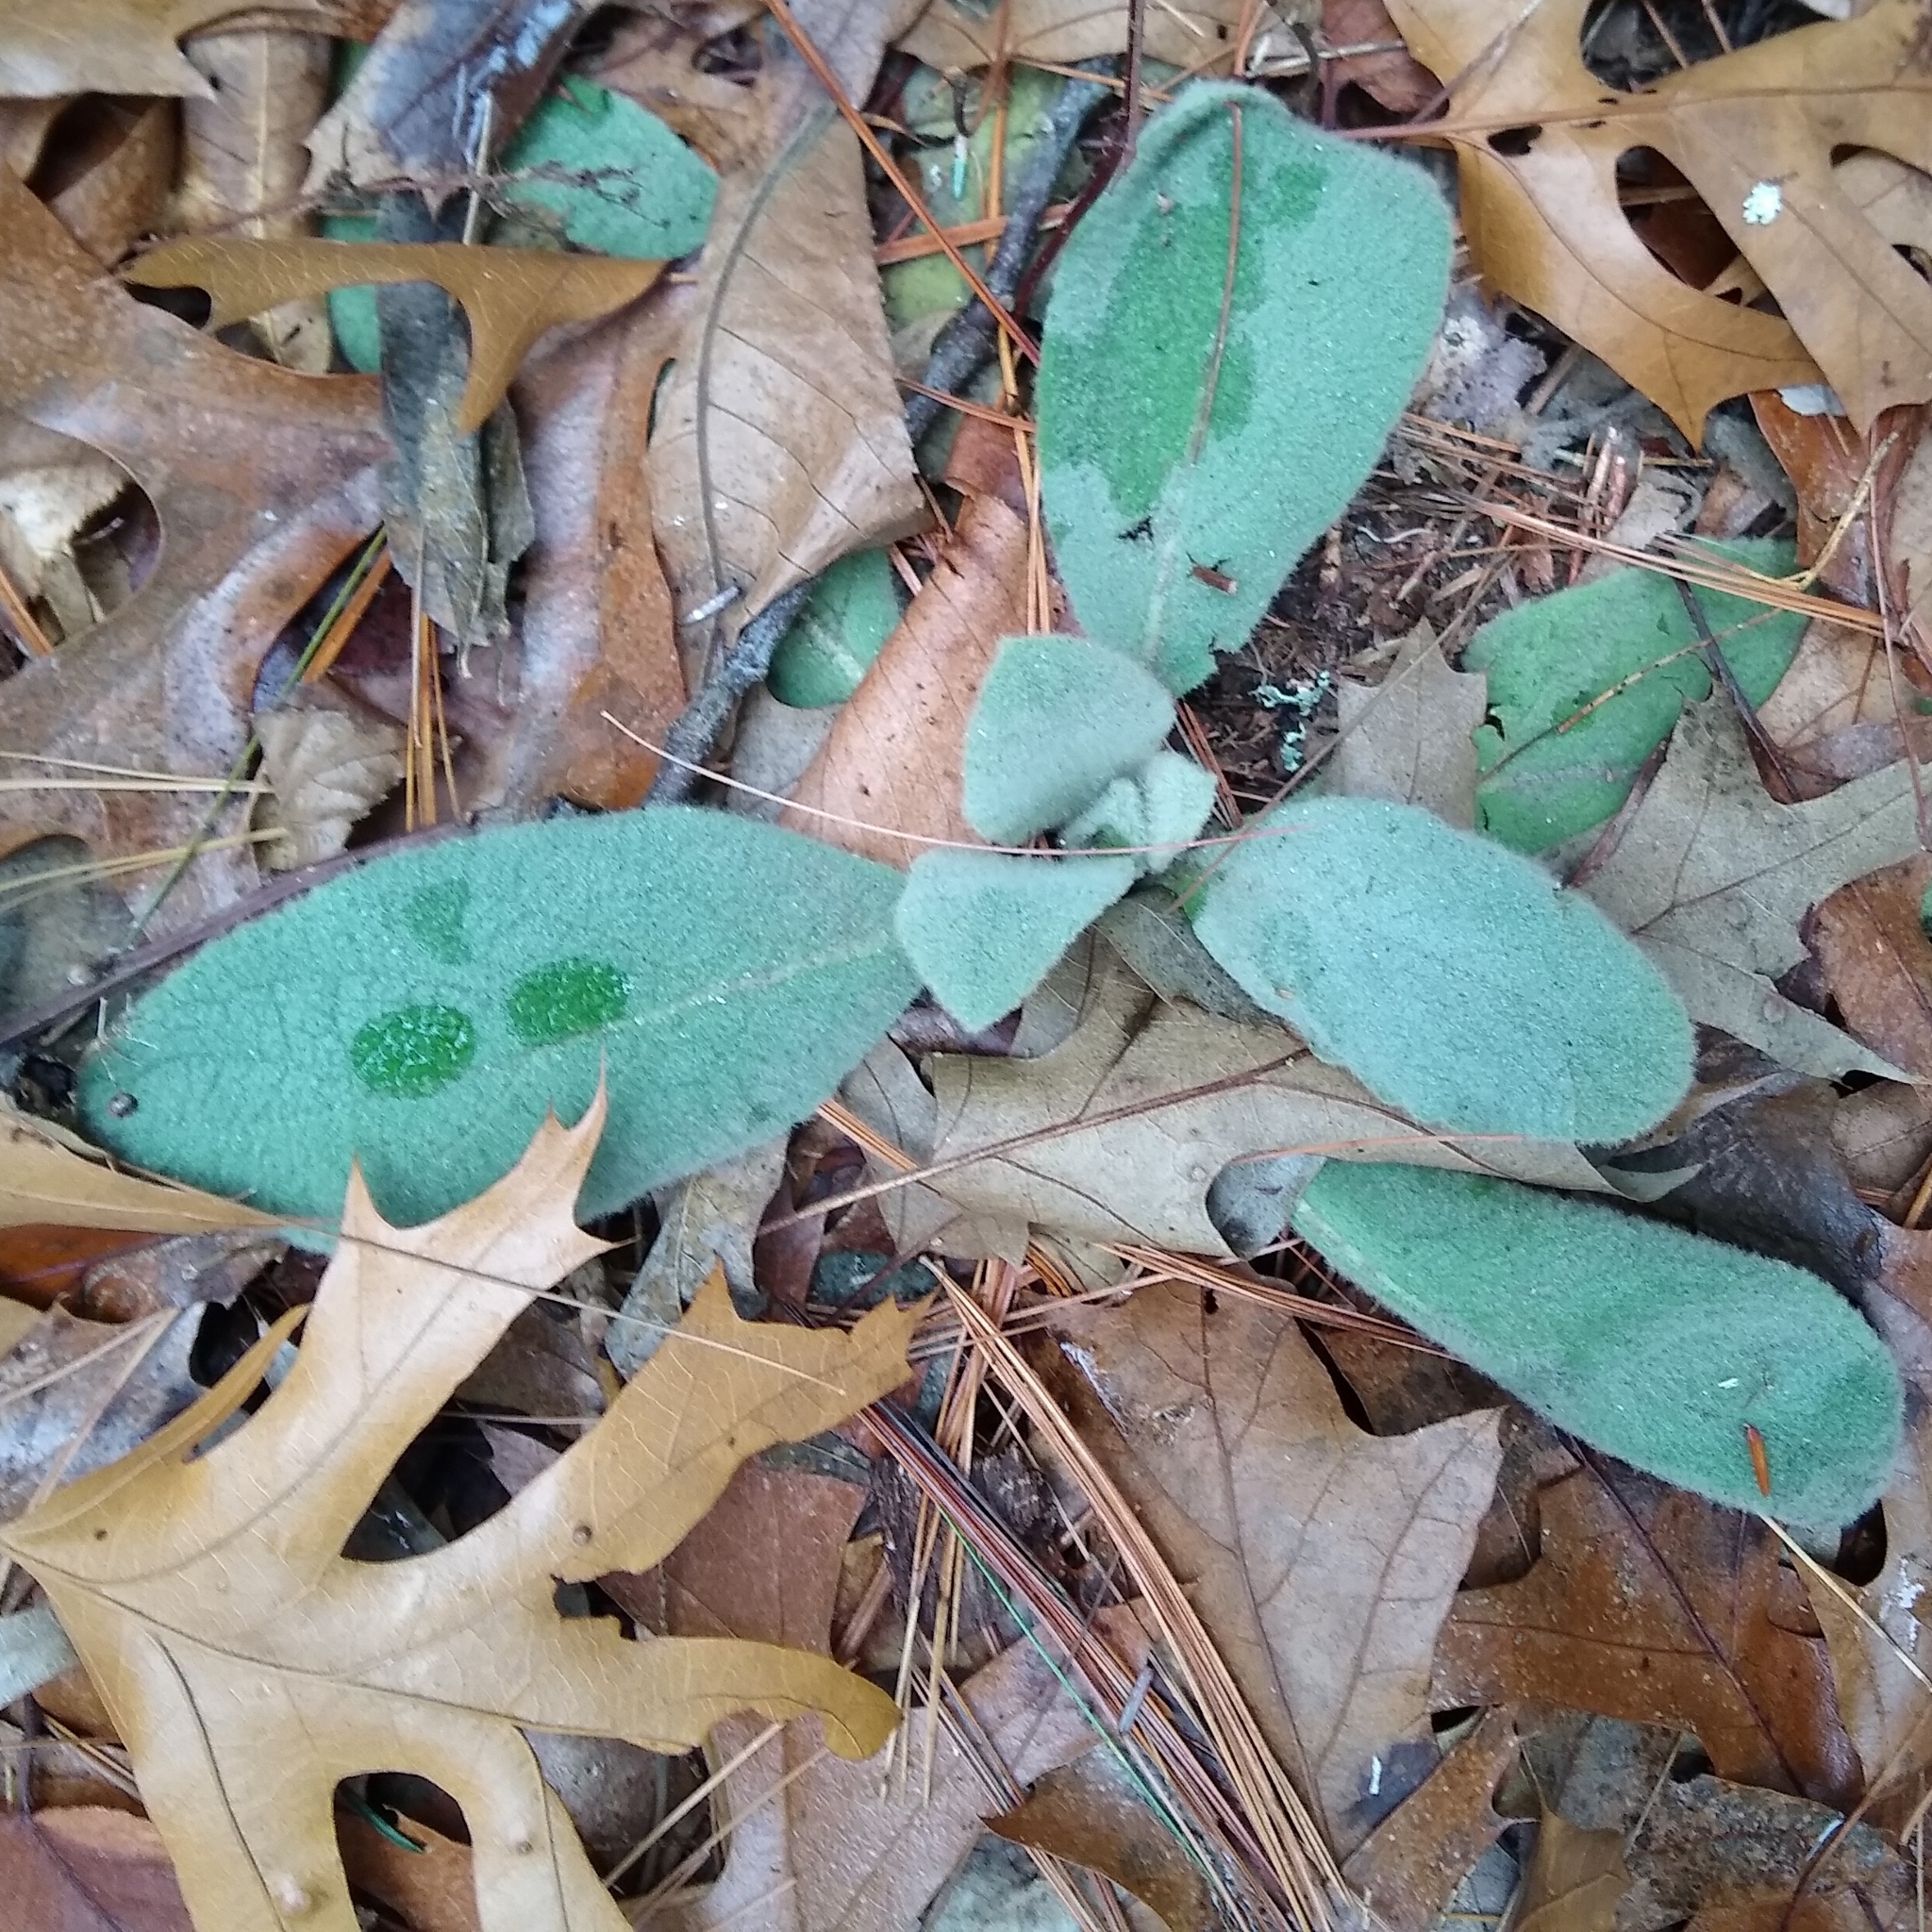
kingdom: Plantae
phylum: Tracheophyta
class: Magnoliopsida
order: Lamiales
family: Scrophulariaceae
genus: Verbascum
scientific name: Verbascum thapsus
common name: Common mullein
